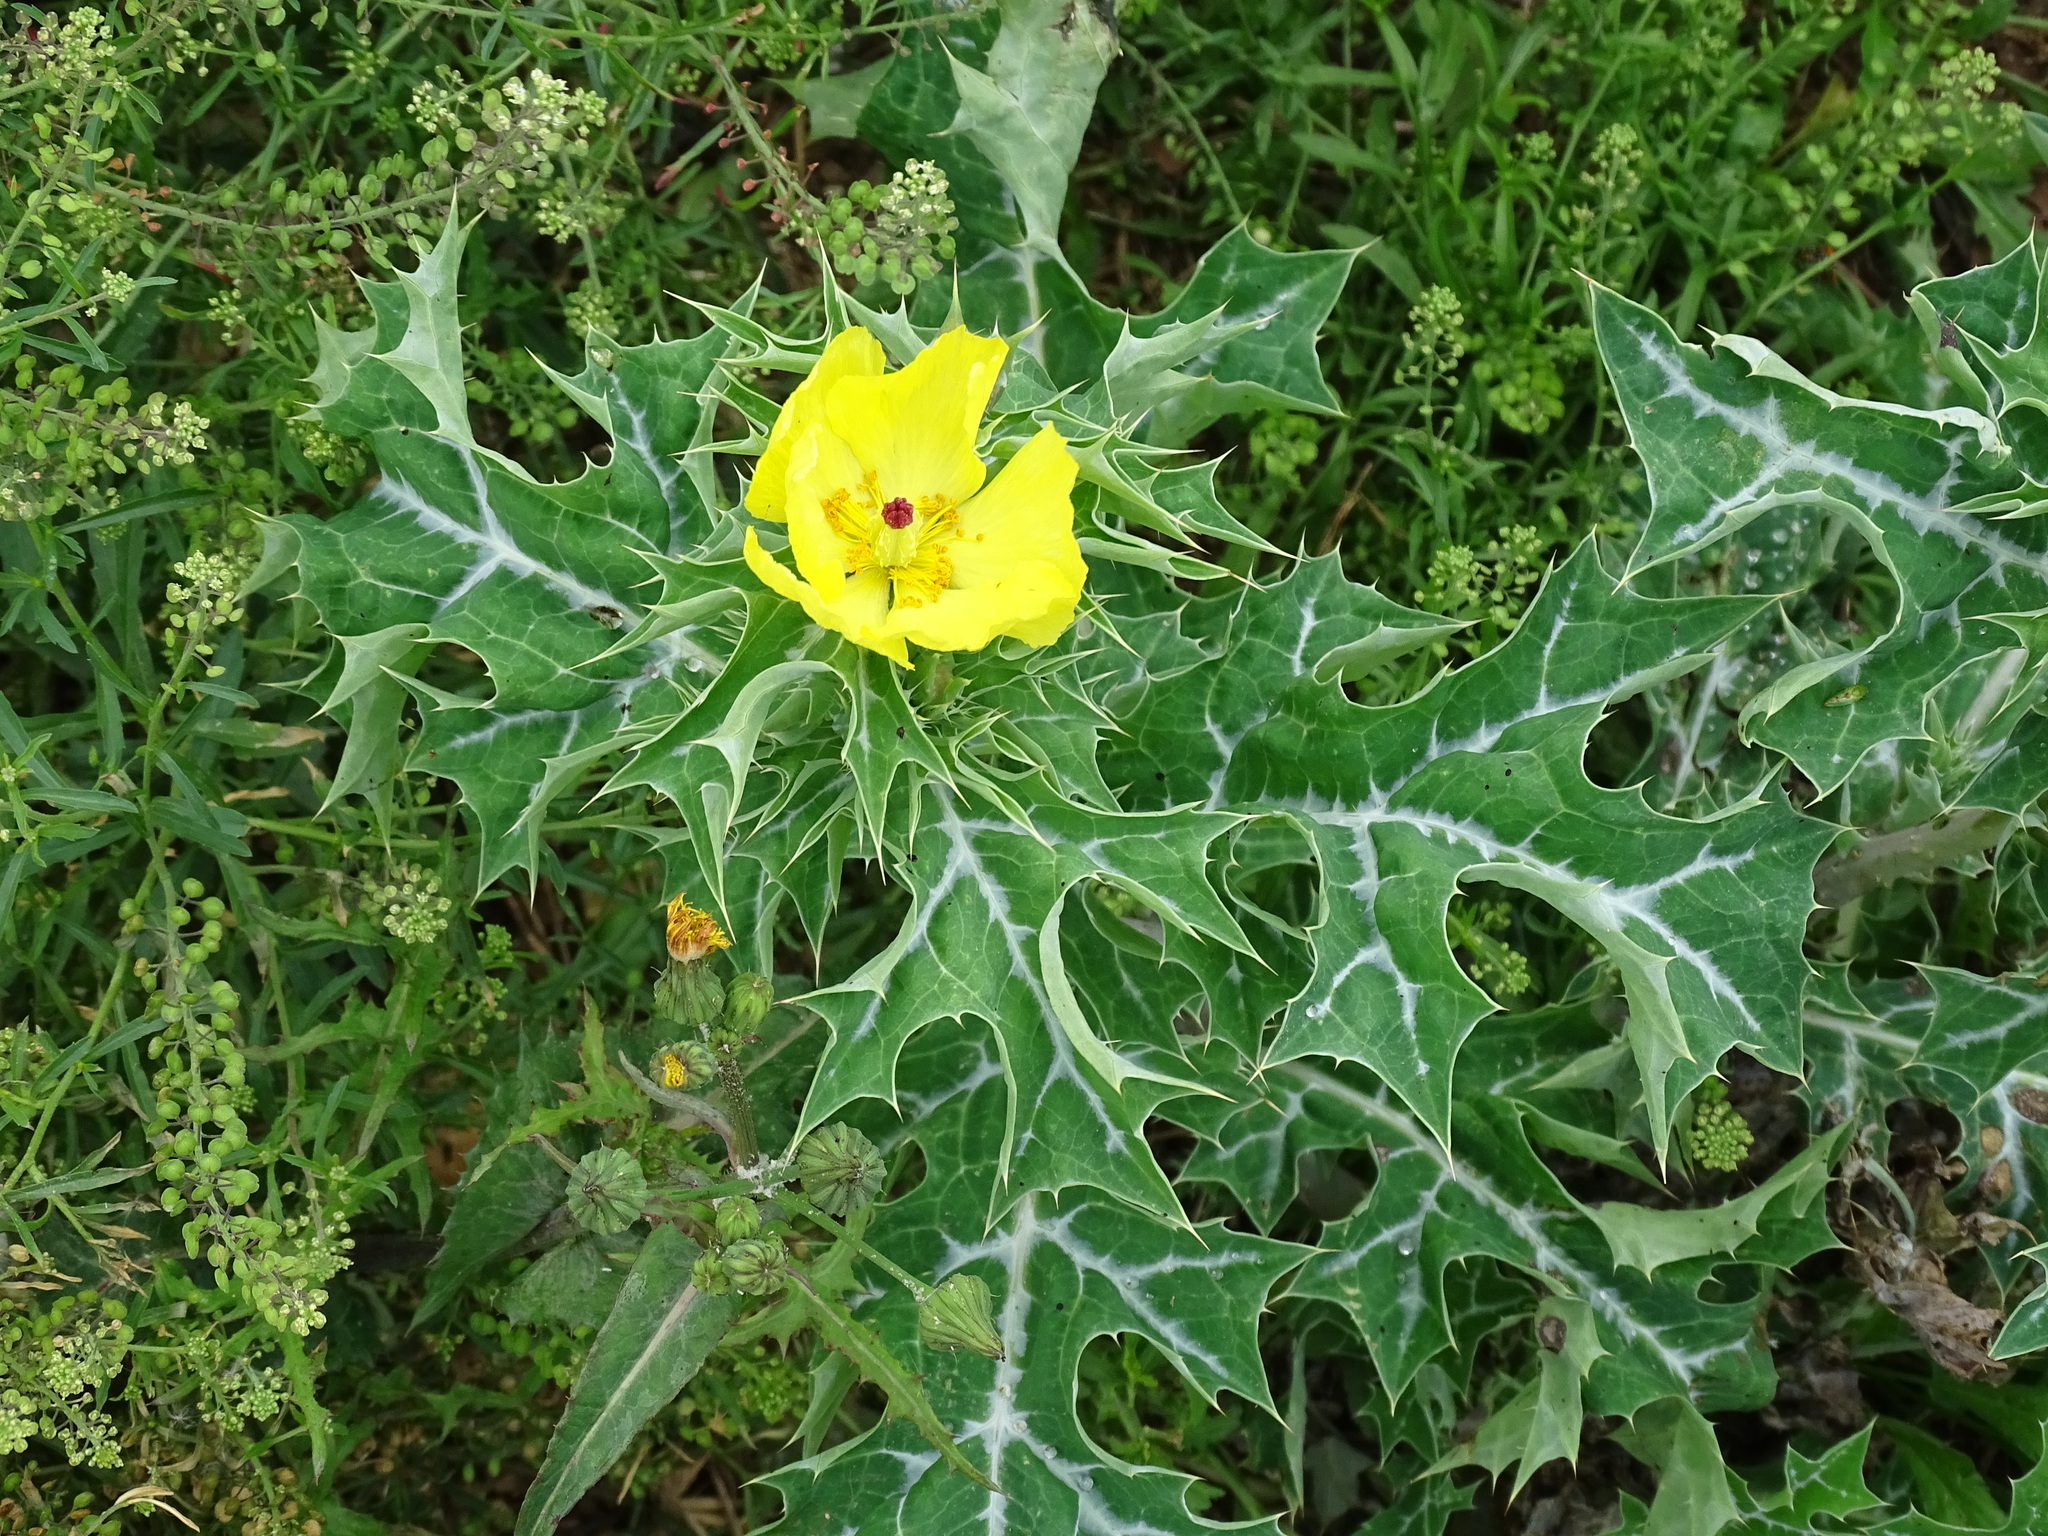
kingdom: Plantae
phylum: Tracheophyta
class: Magnoliopsida
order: Ranunculales
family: Papaveraceae
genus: Argemone
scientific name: Argemone mexicana
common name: Mexican poppy
